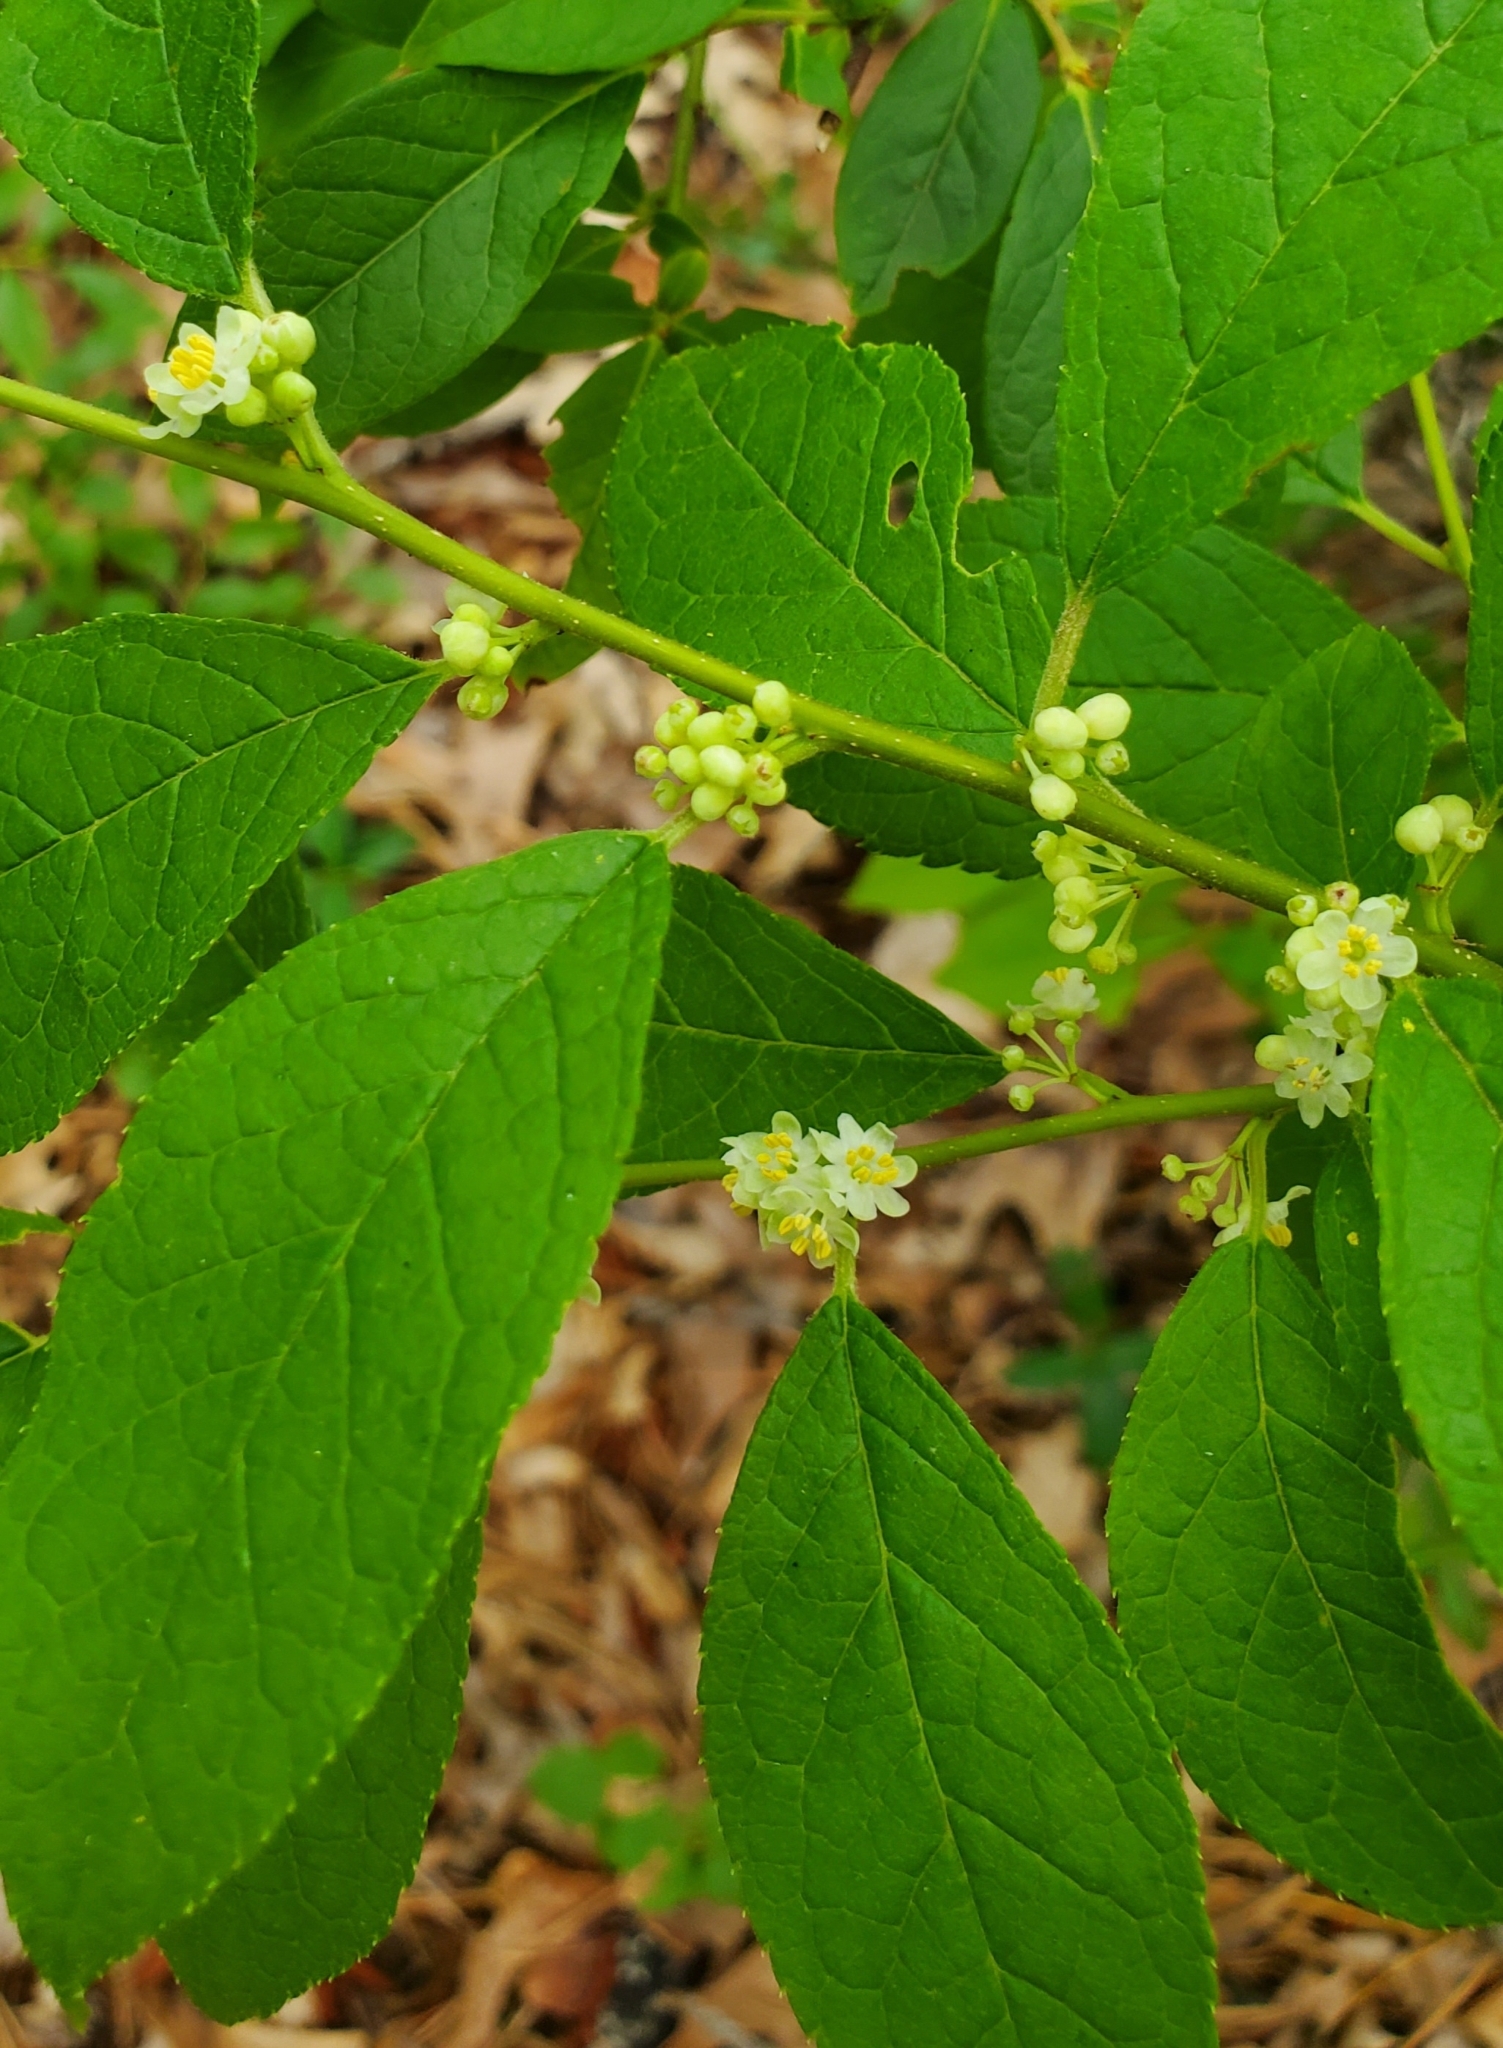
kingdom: Plantae
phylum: Tracheophyta
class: Magnoliopsida
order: Aquifoliales
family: Aquifoliaceae
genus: Ilex
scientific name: Ilex verticillata
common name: Virginia winterberry
